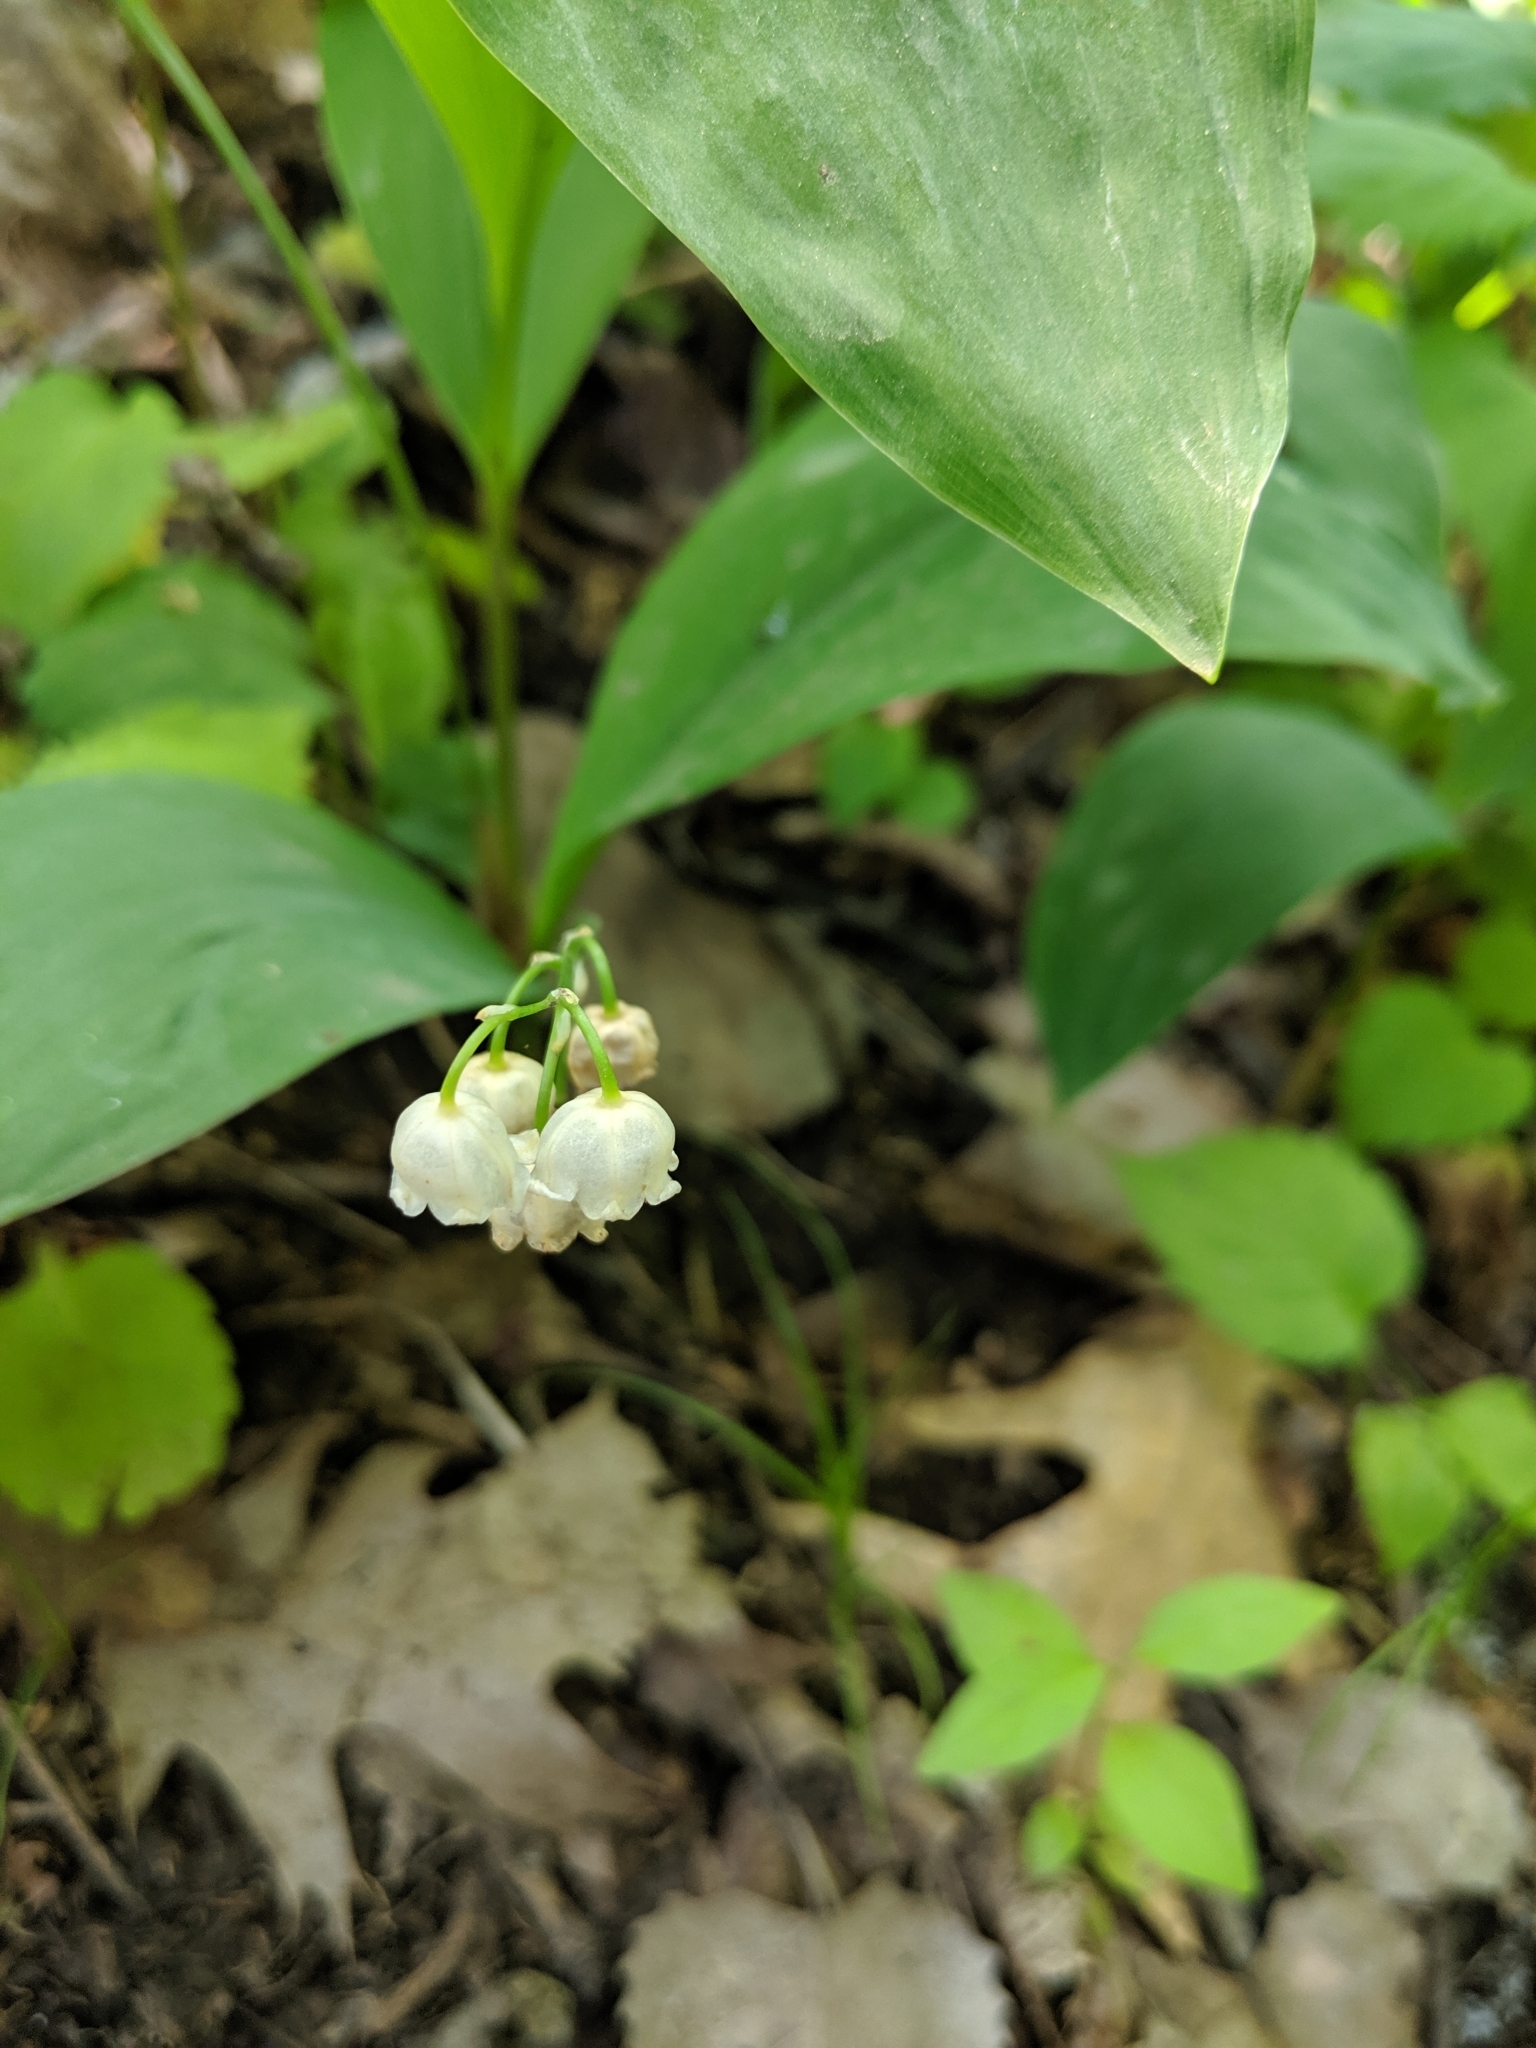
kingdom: Plantae
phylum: Tracheophyta
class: Liliopsida
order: Asparagales
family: Asparagaceae
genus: Convallaria
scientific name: Convallaria majalis
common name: Lily-of-the-valley
